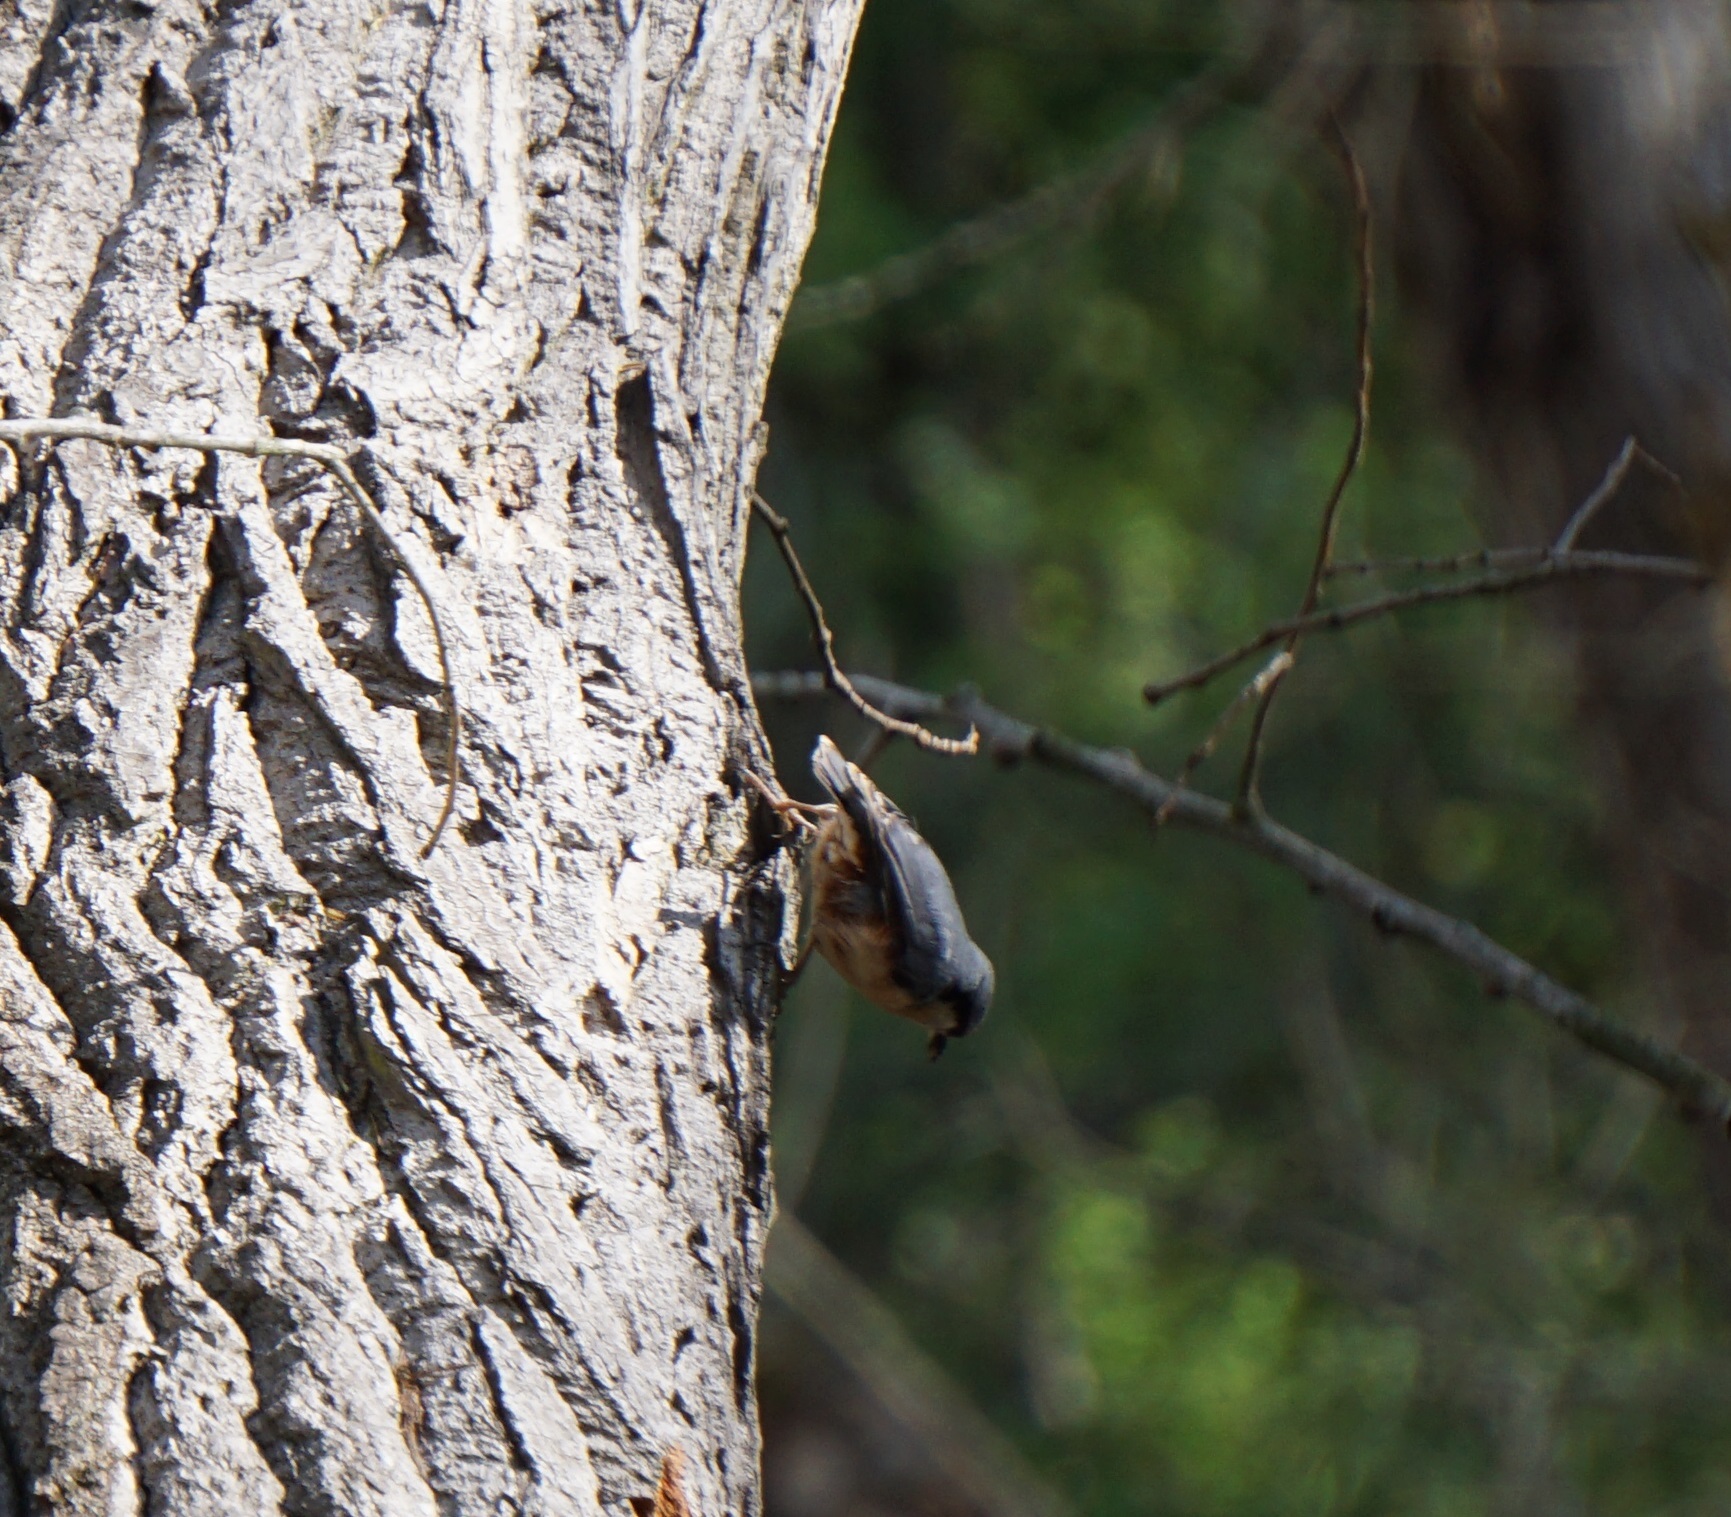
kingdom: Animalia
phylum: Chordata
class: Aves
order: Passeriformes
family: Sittidae
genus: Sitta
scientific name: Sitta europaea
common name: Eurasian nuthatch
